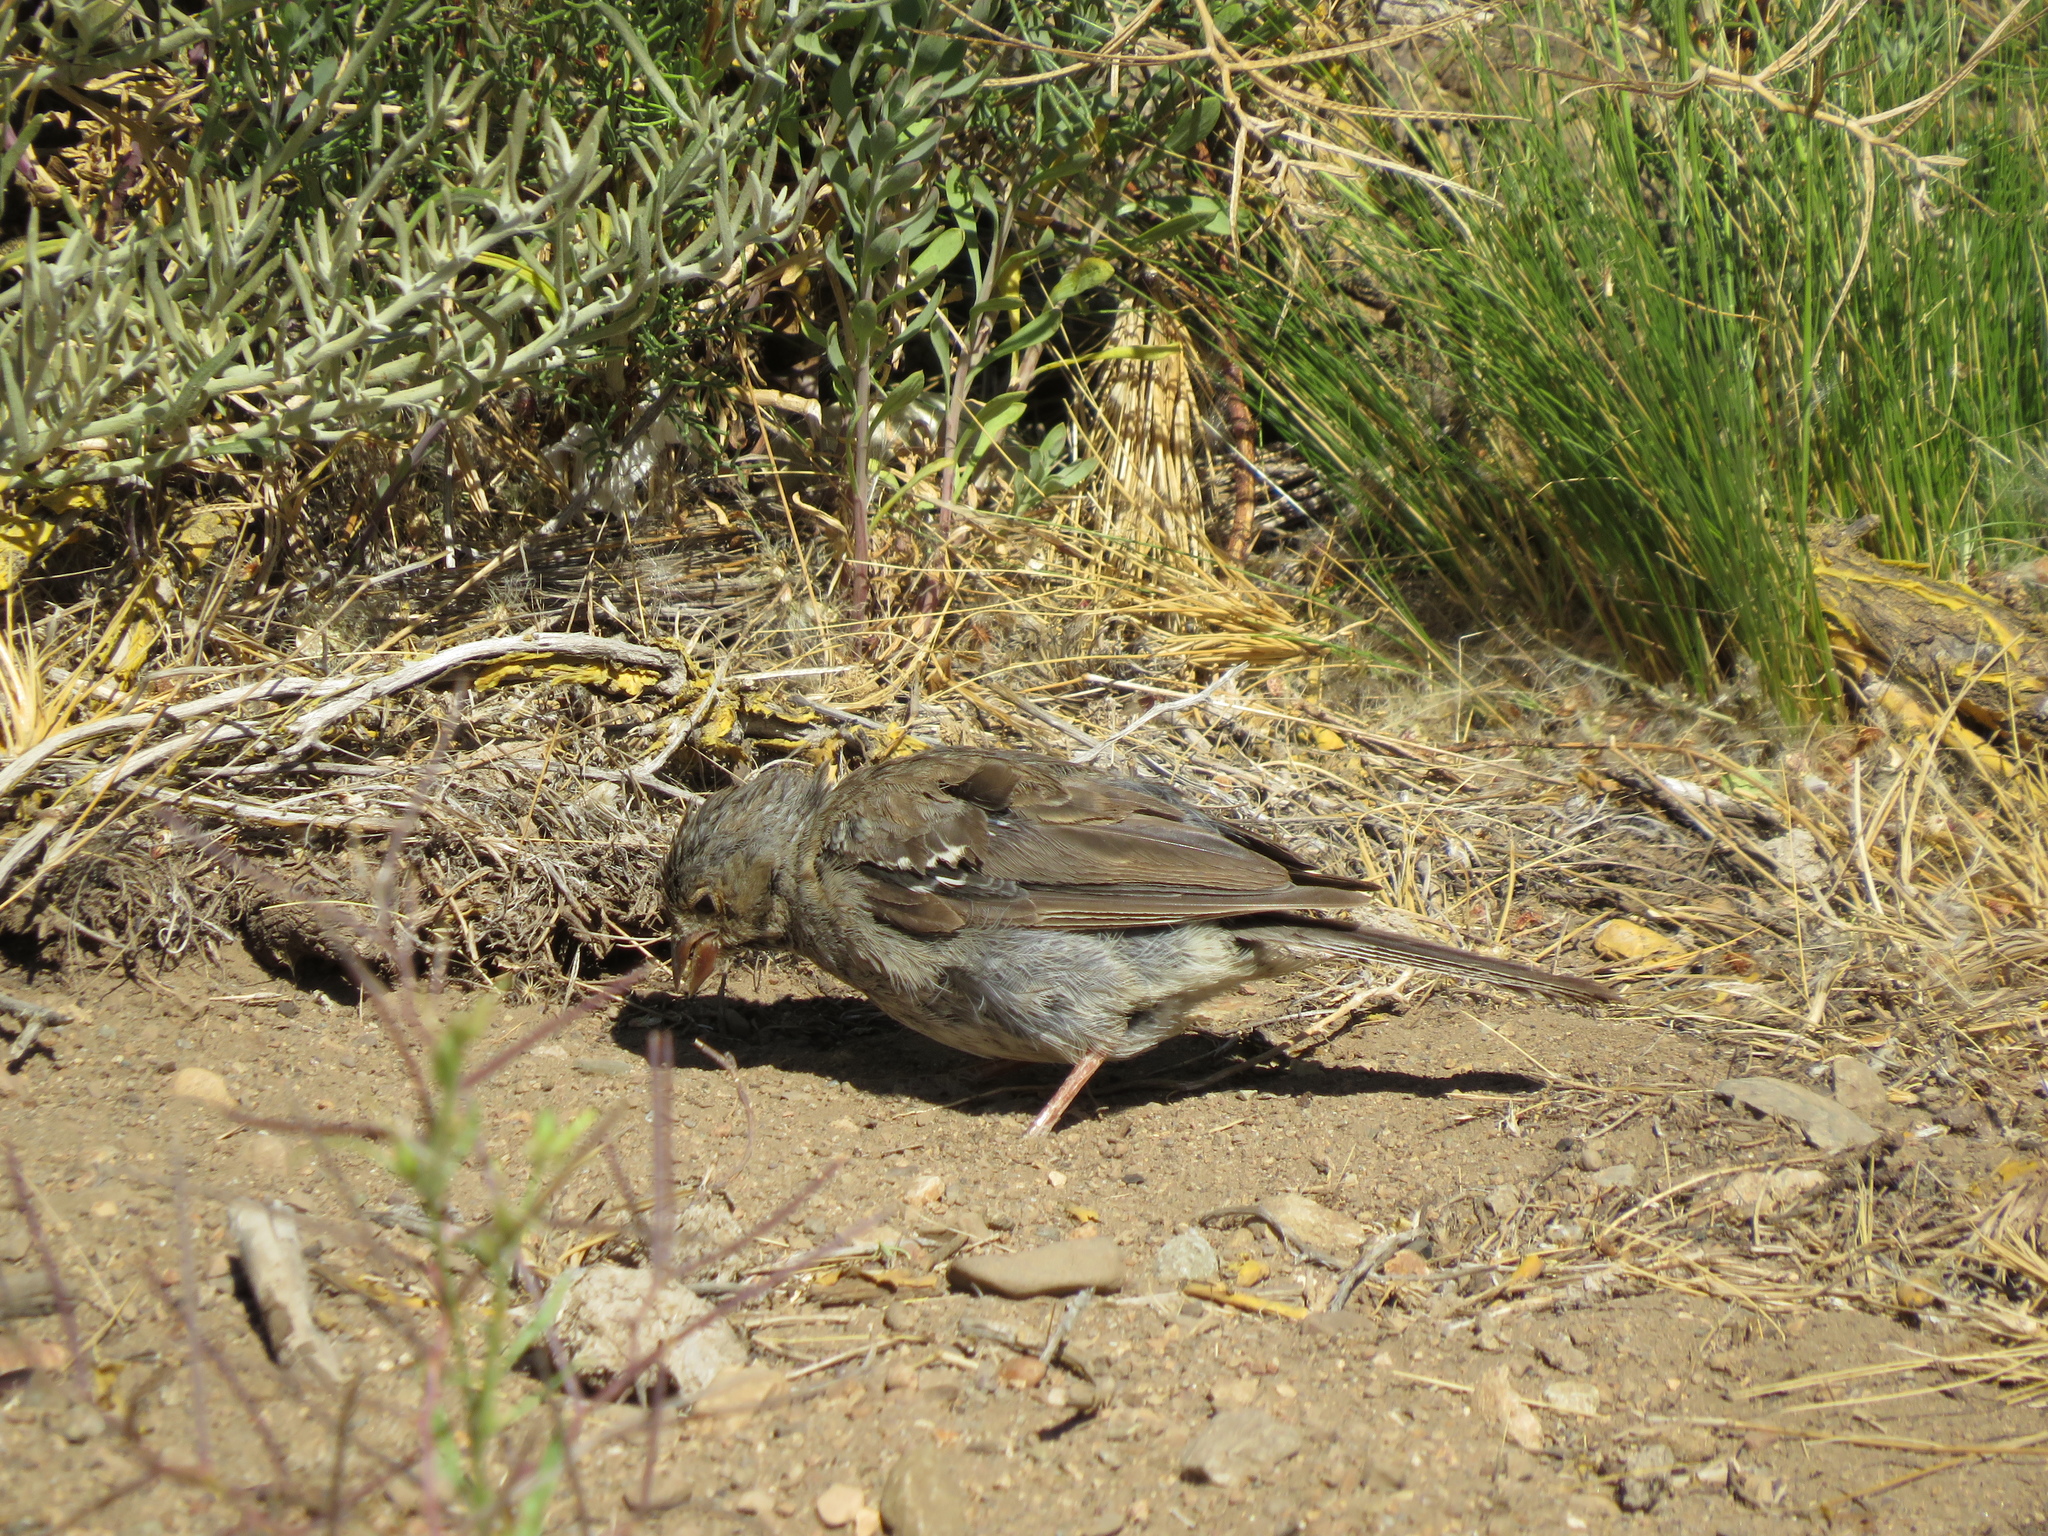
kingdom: Animalia
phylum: Chordata
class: Aves
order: Passeriformes
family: Thraupidae
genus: Rhopospina
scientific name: Rhopospina fruticeti
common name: Mourning sierra finch
